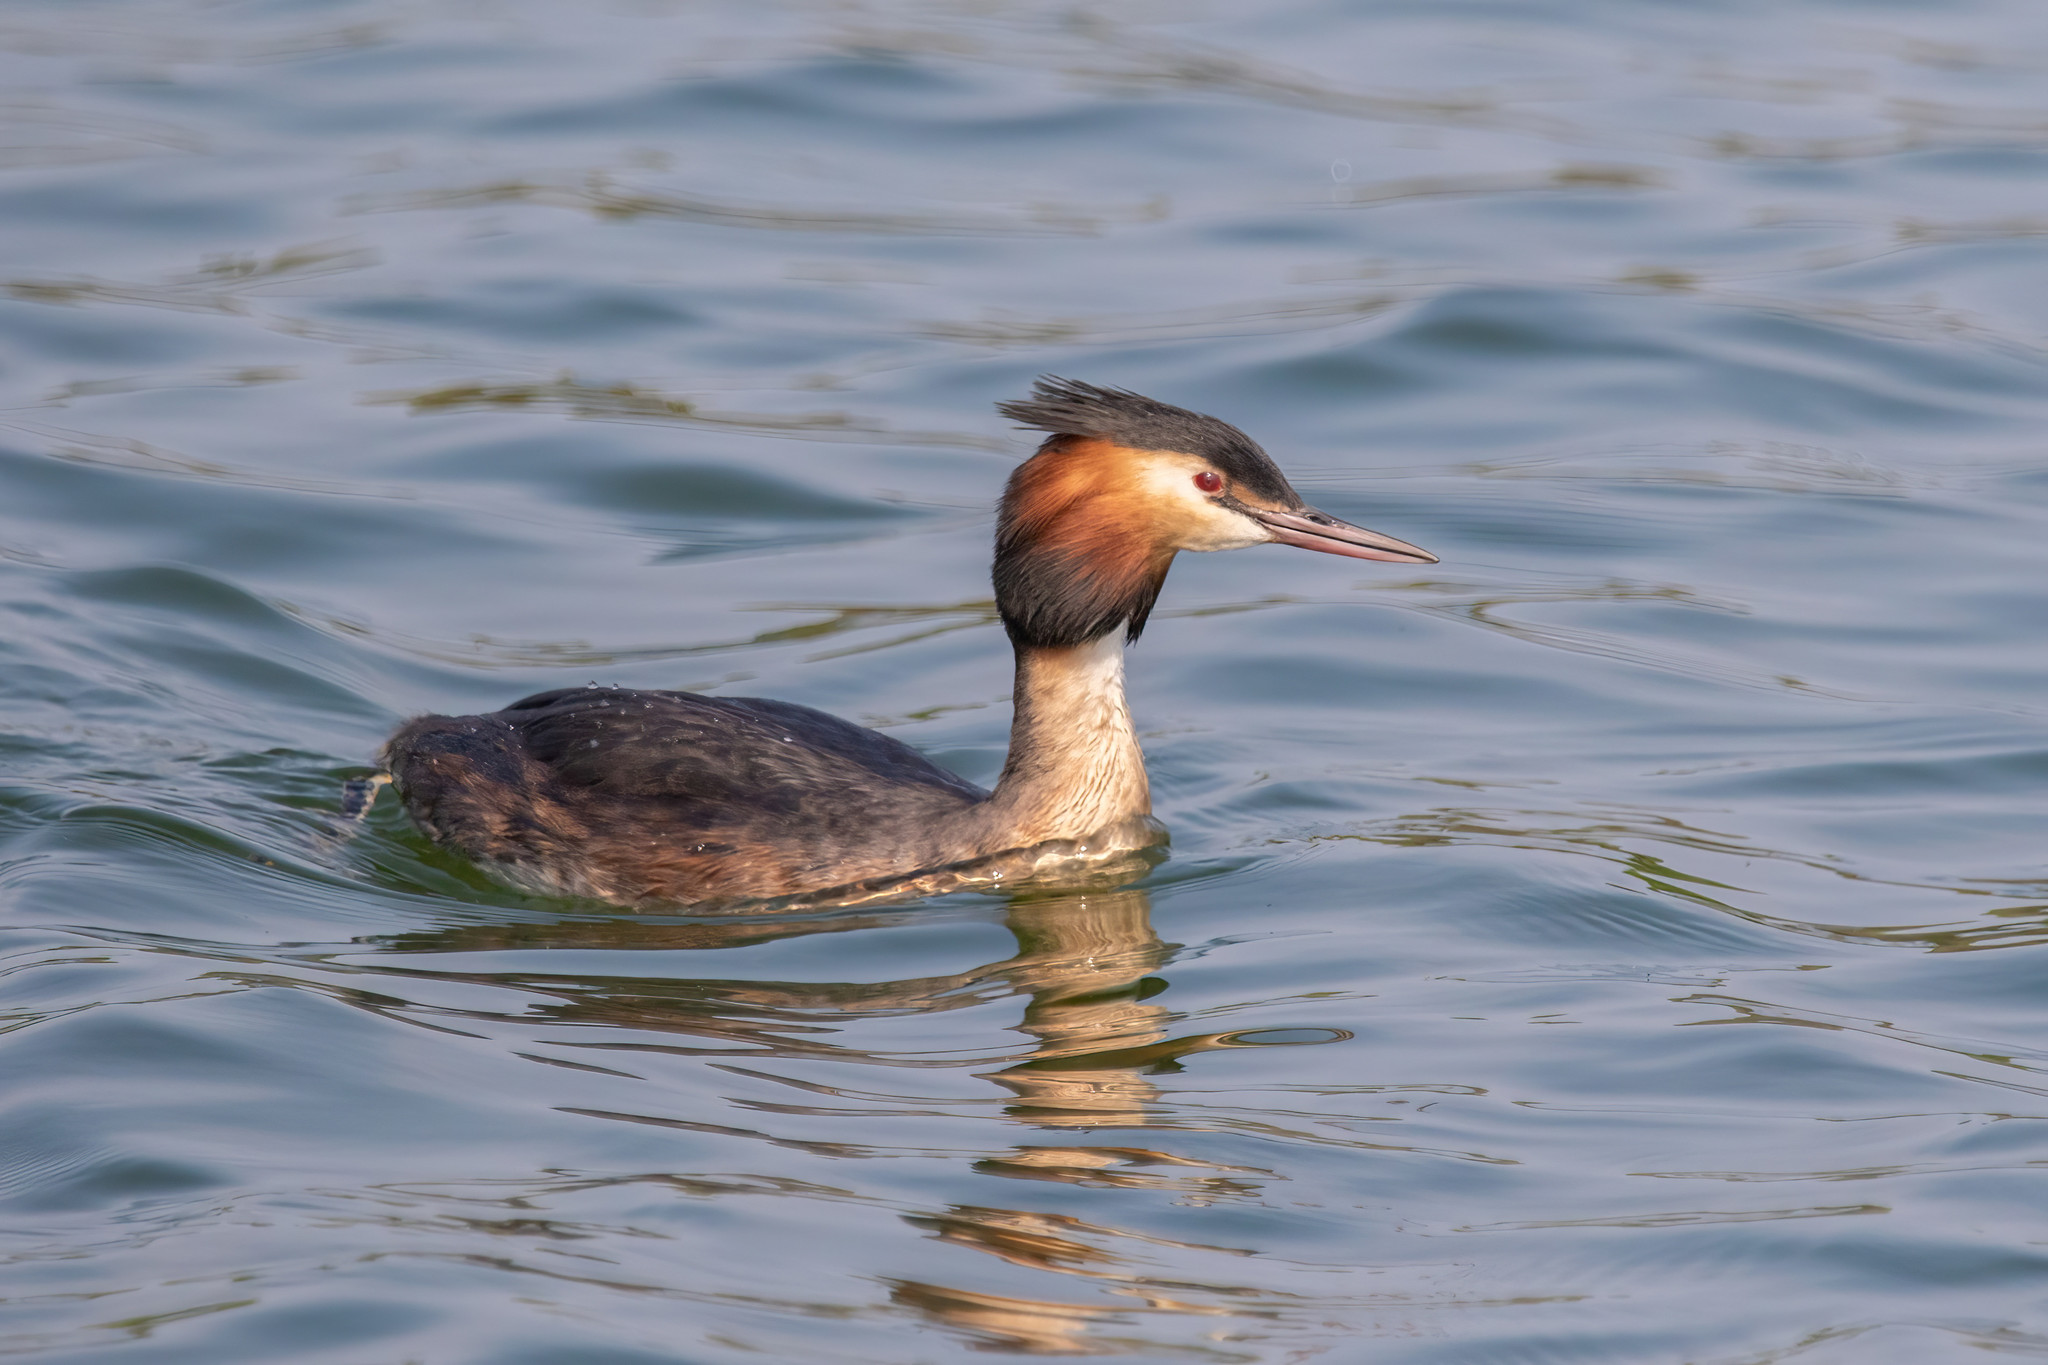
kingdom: Animalia
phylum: Chordata
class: Aves
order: Podicipediformes
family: Podicipedidae
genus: Podiceps
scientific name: Podiceps cristatus
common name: Great crested grebe
